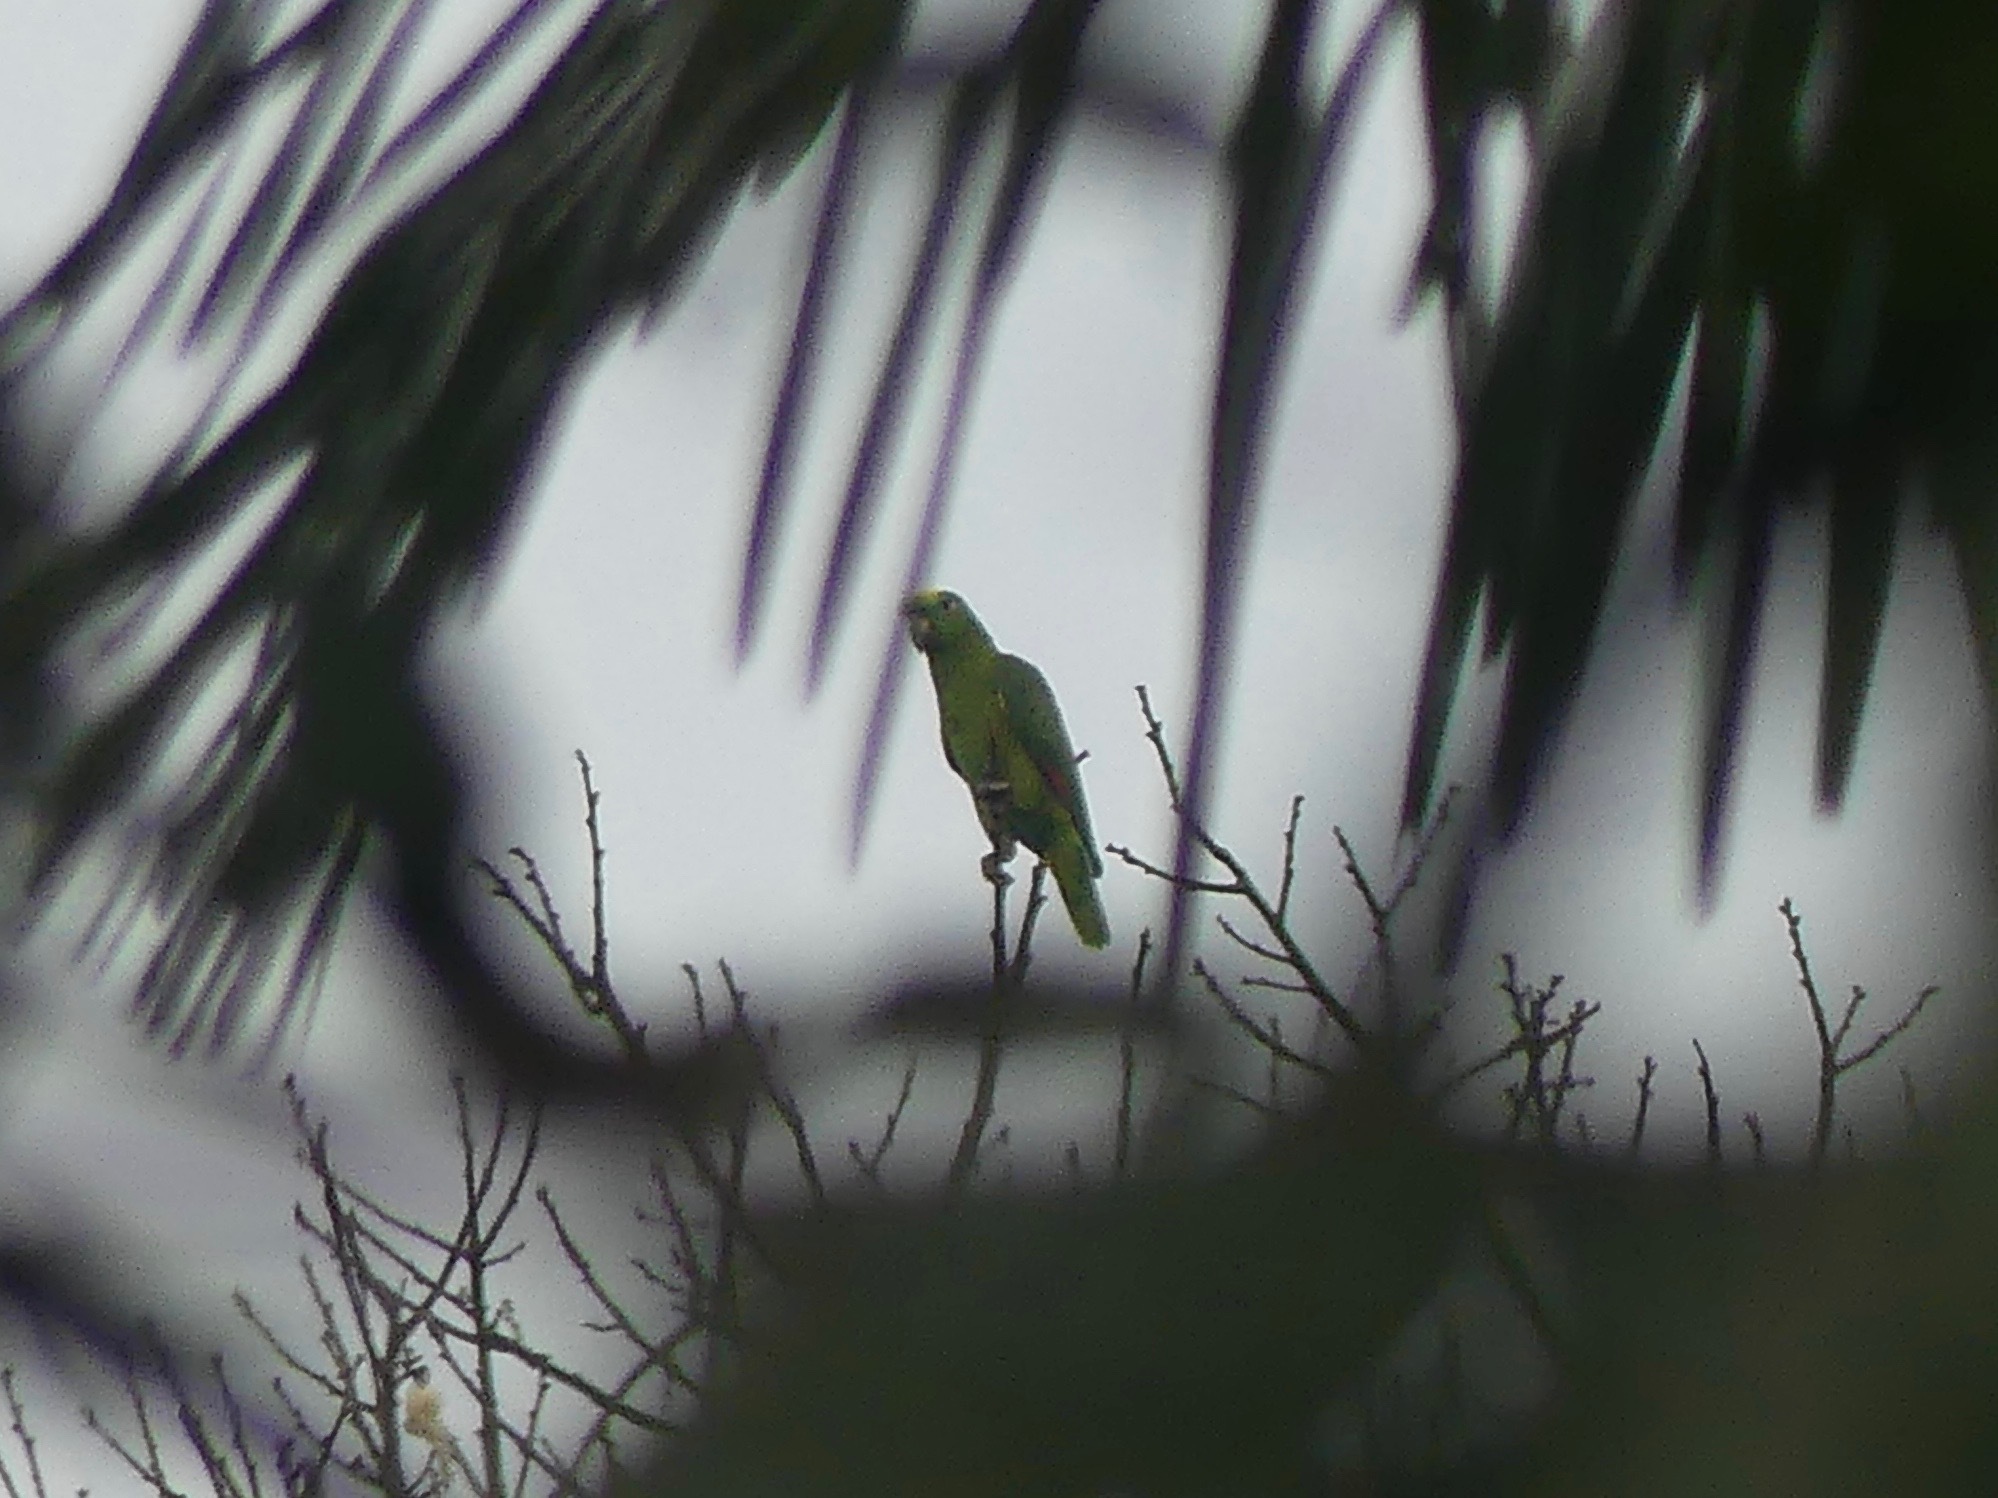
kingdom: Animalia
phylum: Chordata
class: Aves
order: Psittaciformes
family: Psittacidae
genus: Amazona
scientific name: Amazona ochrocephala
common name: Yellow-crowned amazon
